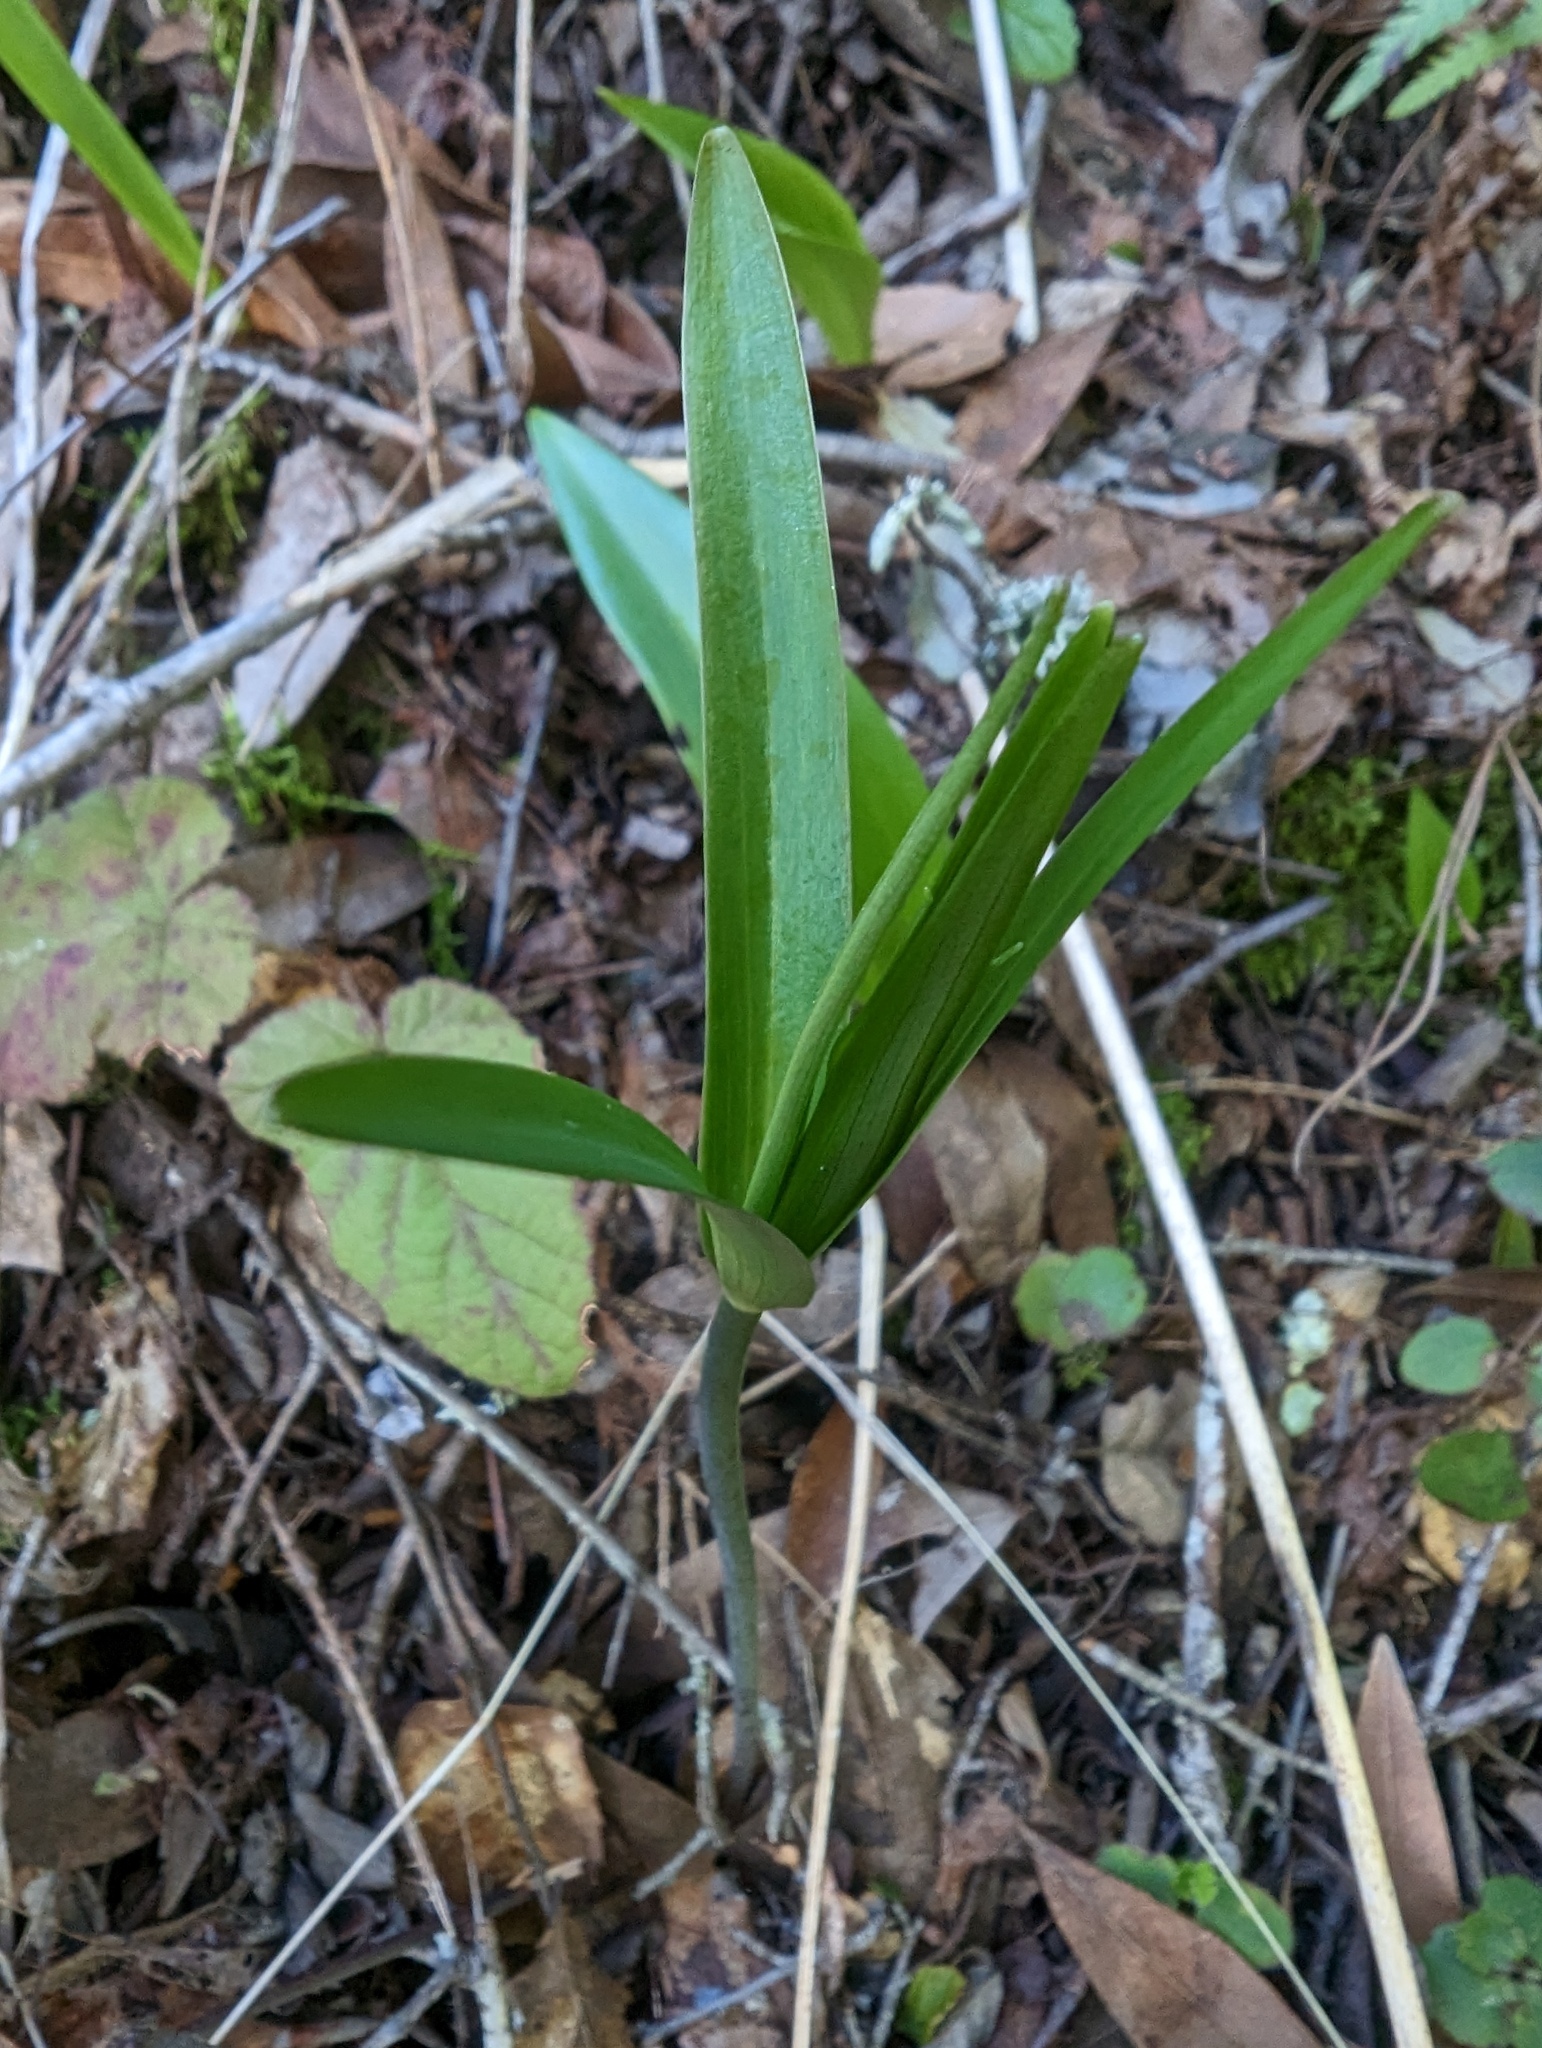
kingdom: Plantae
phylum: Tracheophyta
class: Liliopsida
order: Liliales
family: Liliaceae
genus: Fritillaria
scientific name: Fritillaria affinis
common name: Ojai fritillary
